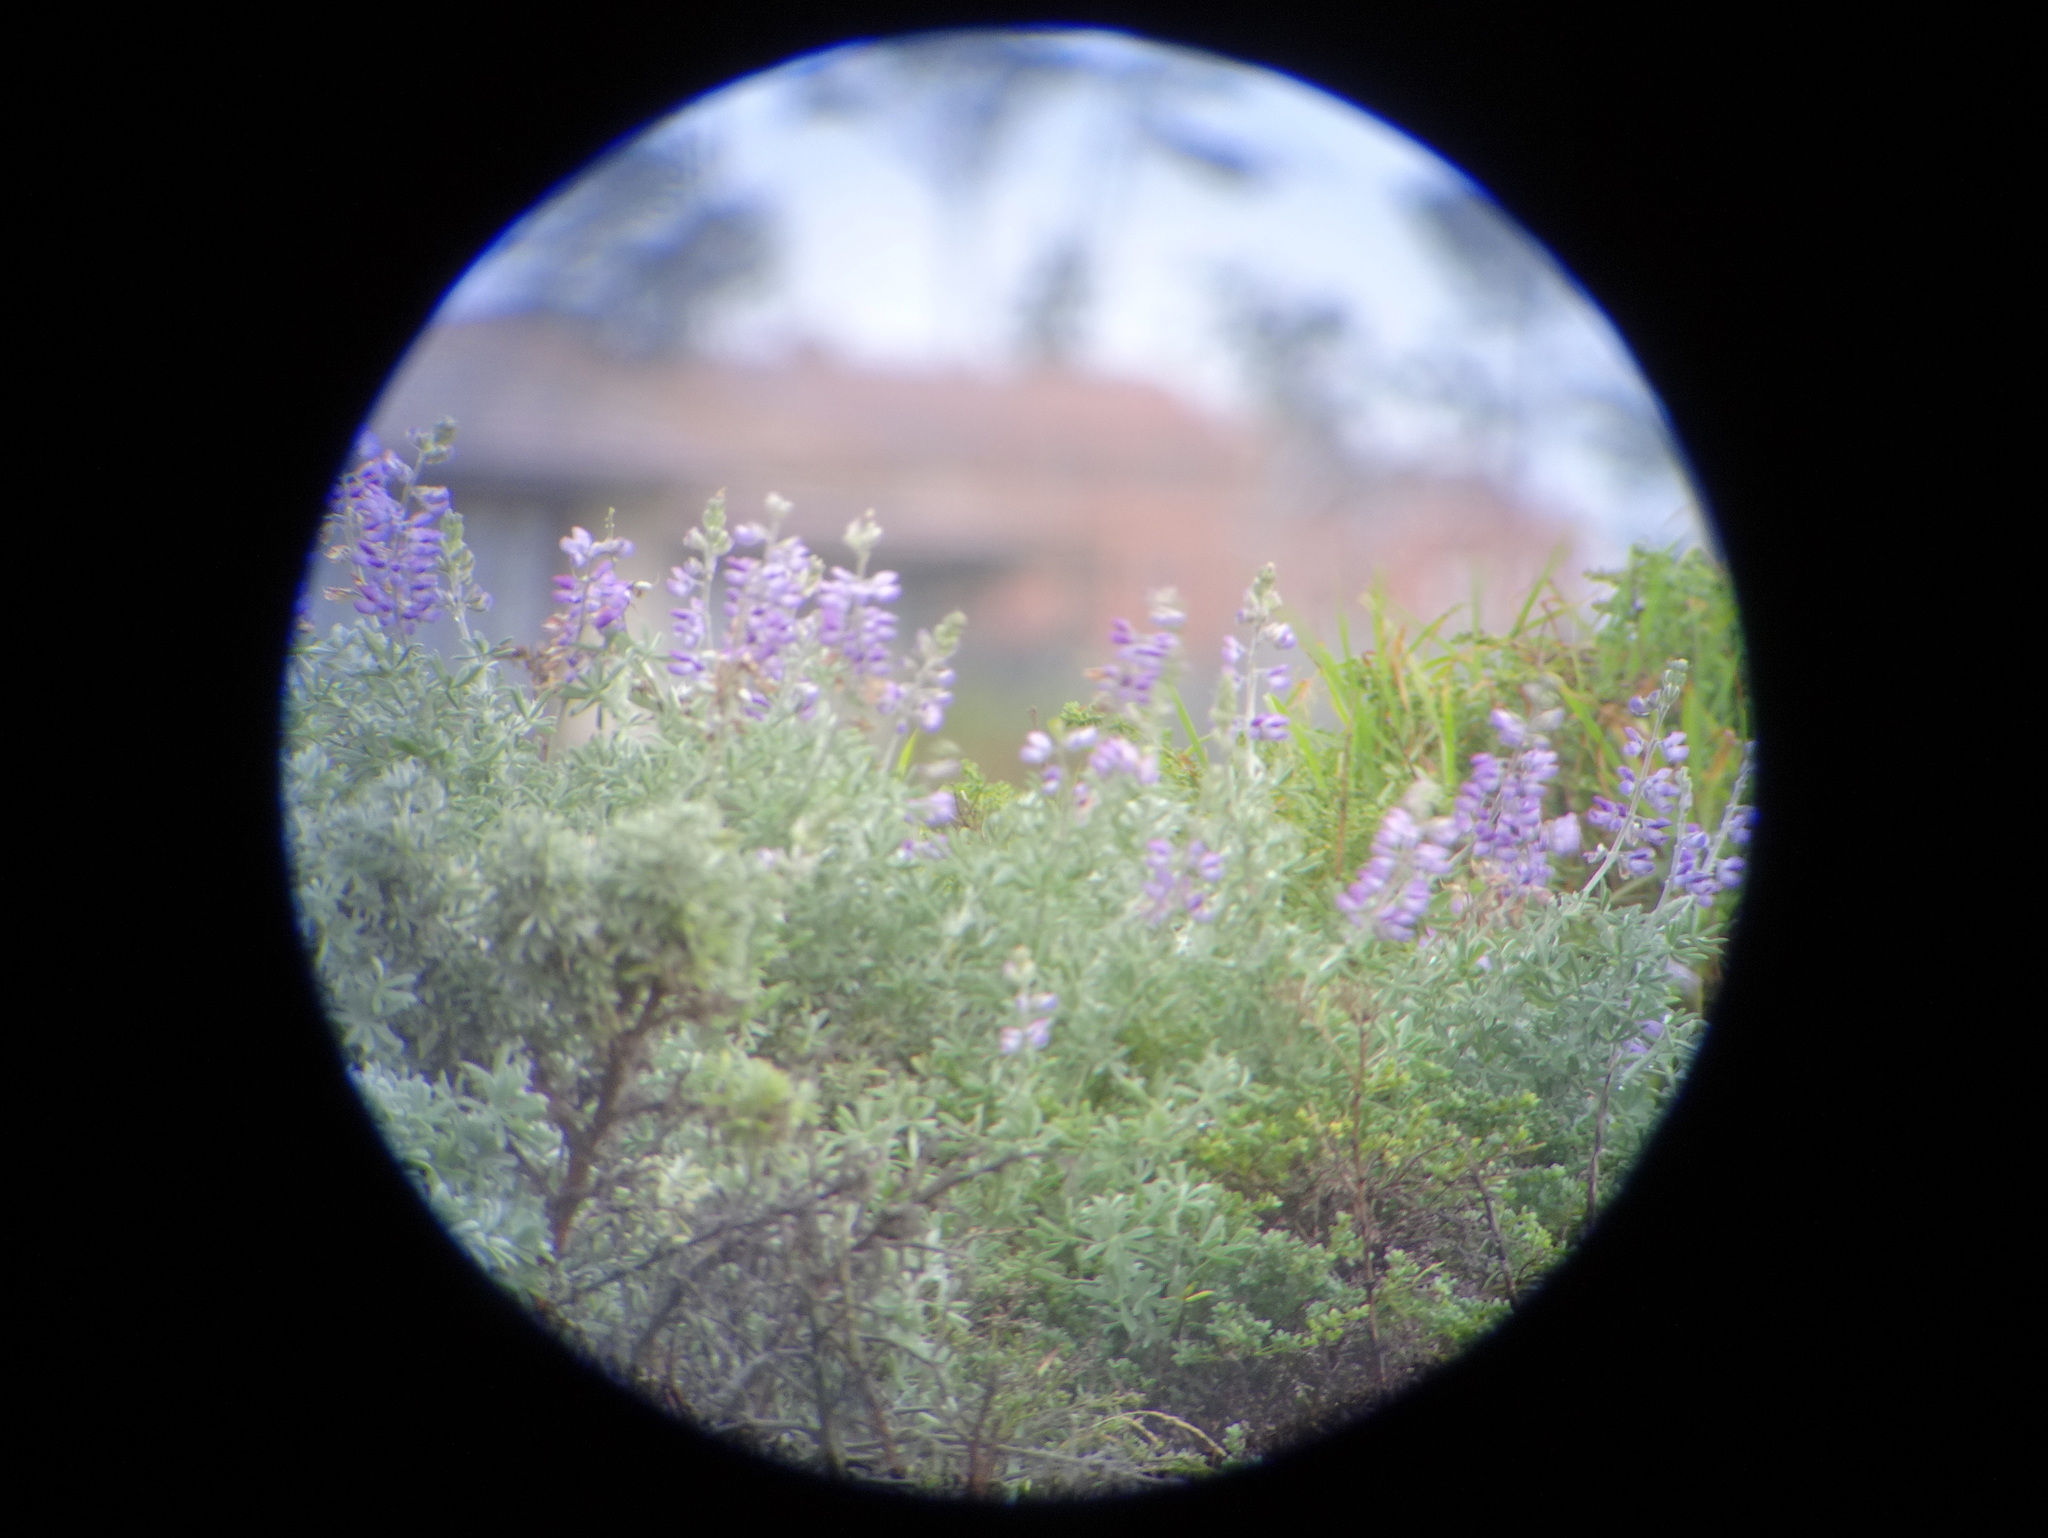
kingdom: Plantae
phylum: Tracheophyta
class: Magnoliopsida
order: Fabales
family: Fabaceae
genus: Lupinus
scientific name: Lupinus albifrons
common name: Foothill lupine
